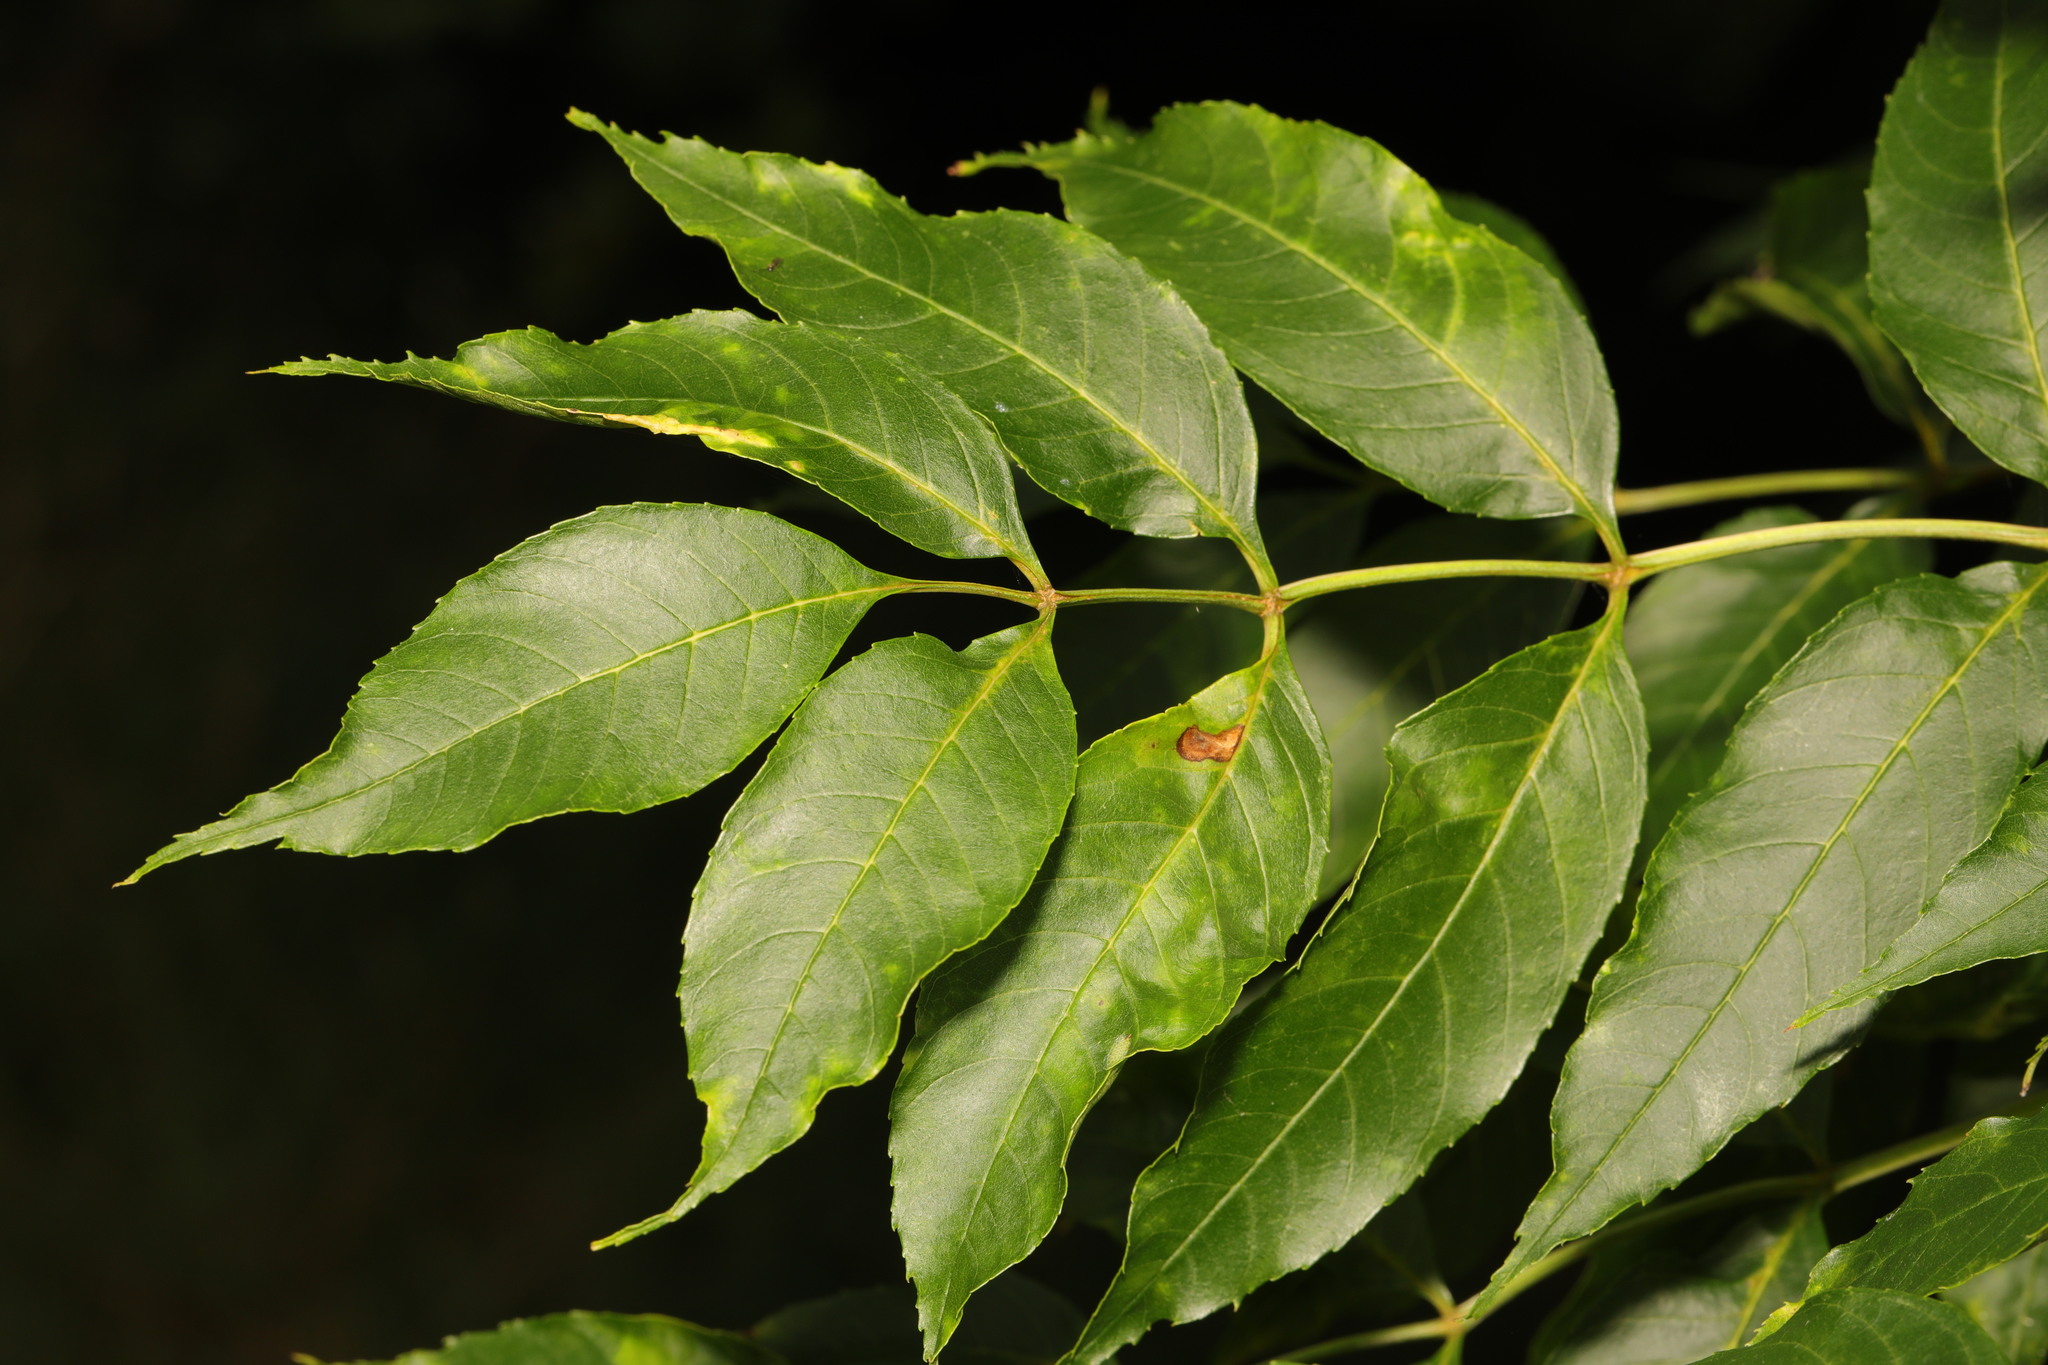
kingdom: Plantae
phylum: Tracheophyta
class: Magnoliopsida
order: Lamiales
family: Oleaceae
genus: Fraxinus
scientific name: Fraxinus excelsior
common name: European ash
